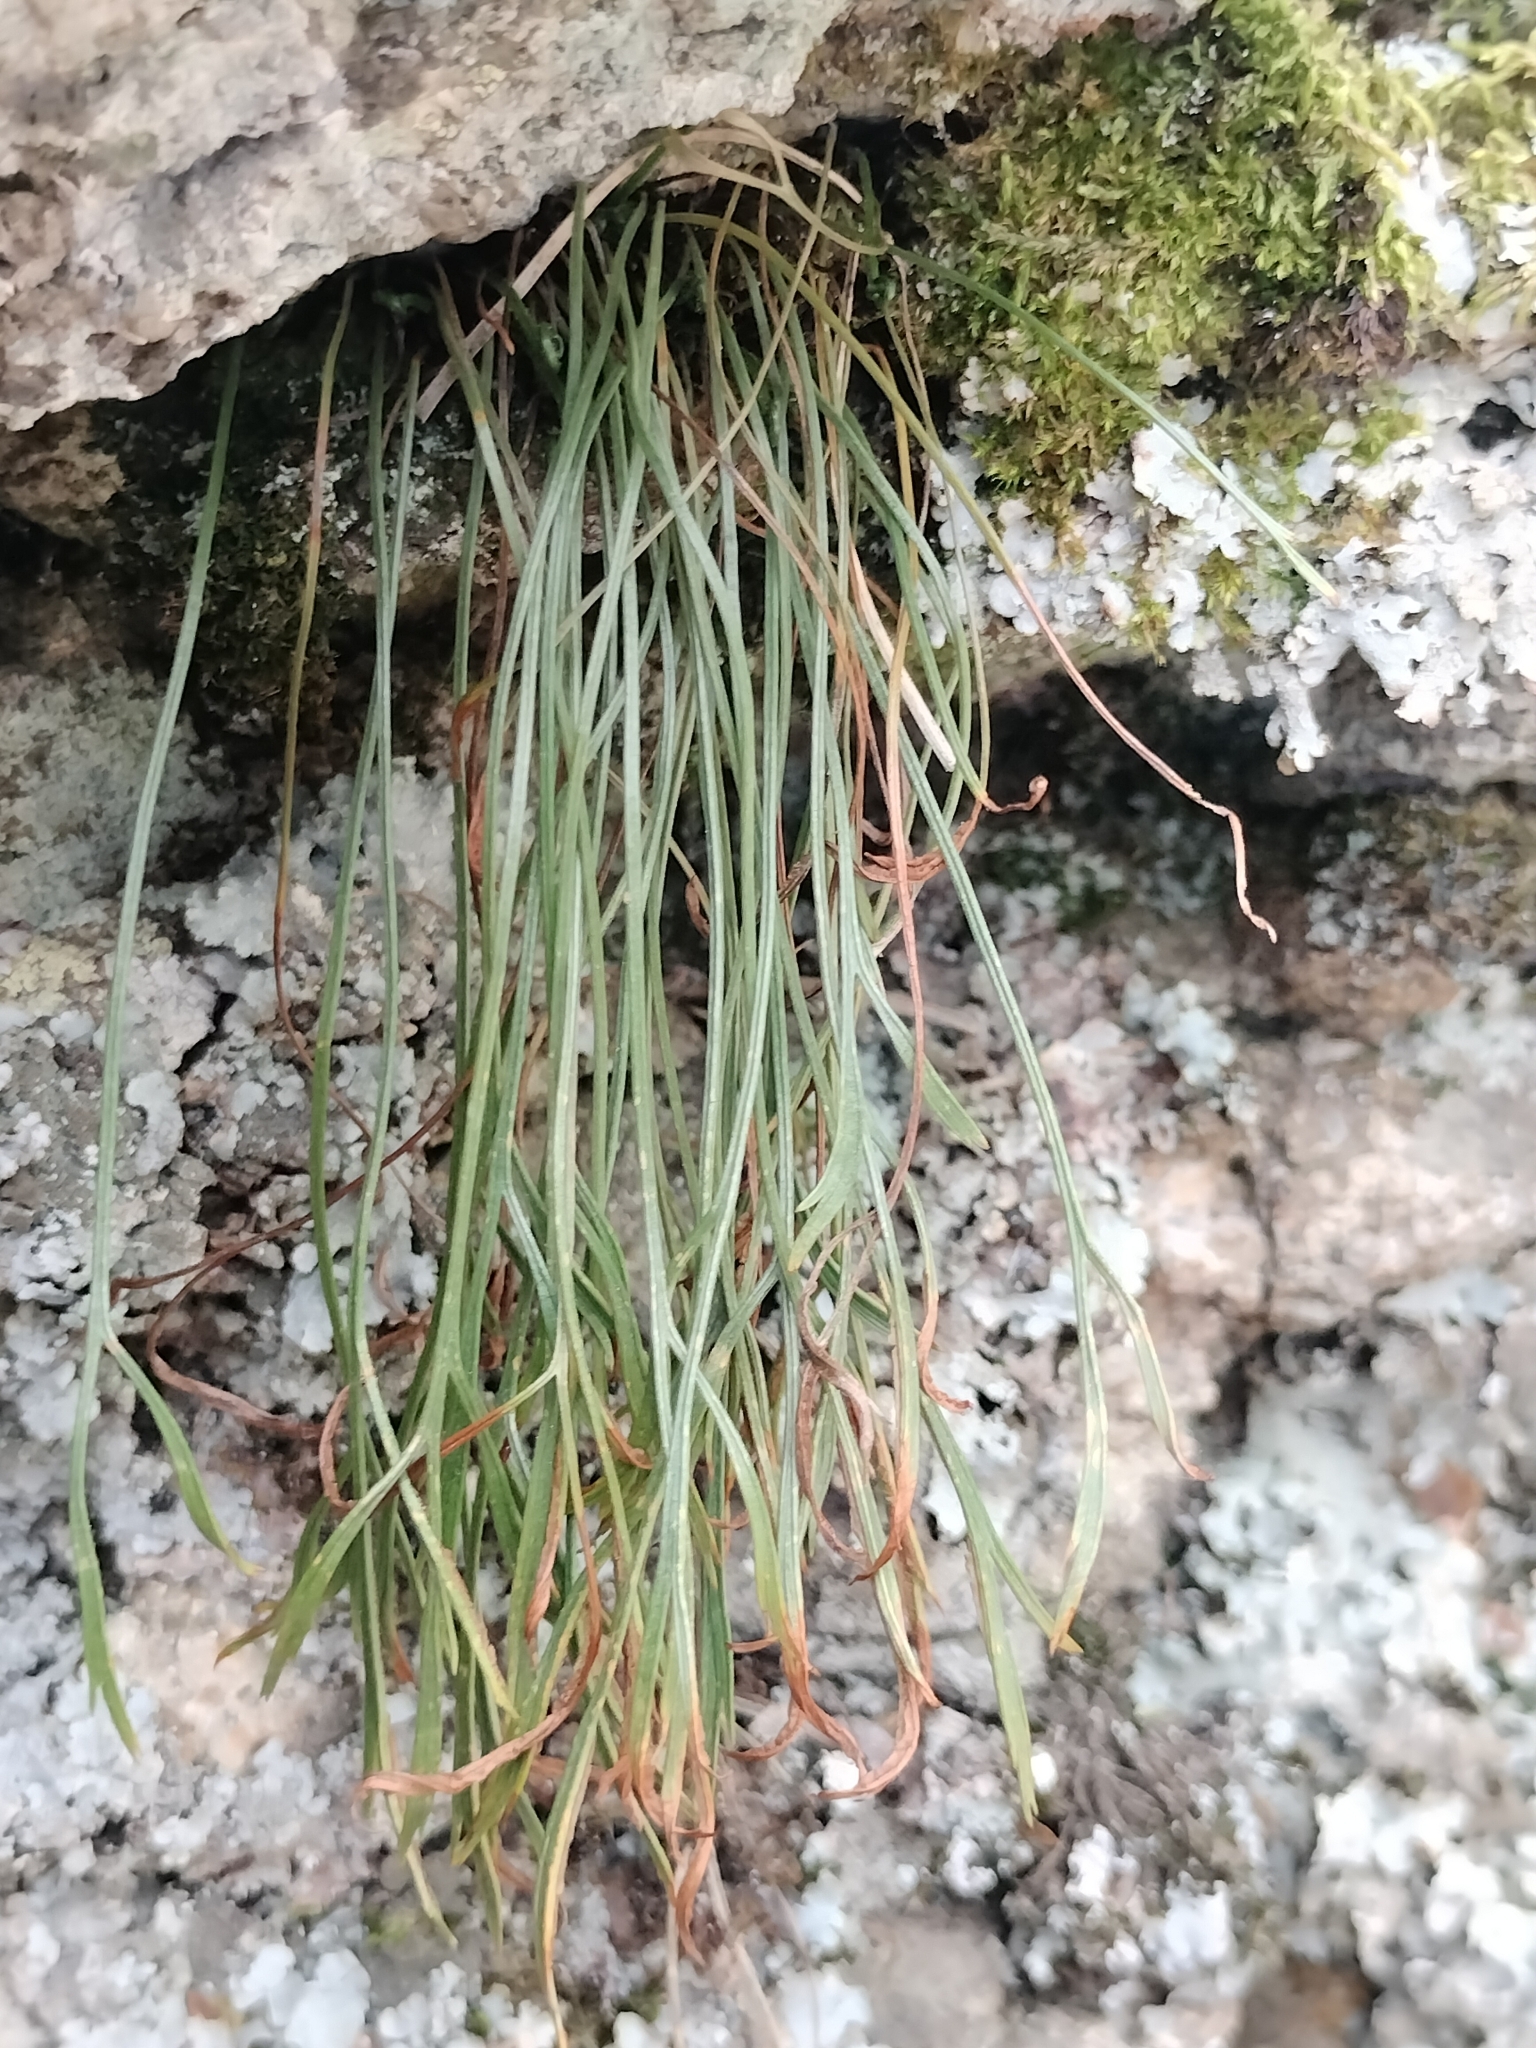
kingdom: Plantae
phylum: Tracheophyta
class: Polypodiopsida
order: Polypodiales
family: Aspleniaceae
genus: Asplenium
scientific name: Asplenium septentrionale
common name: Forked spleenwort
